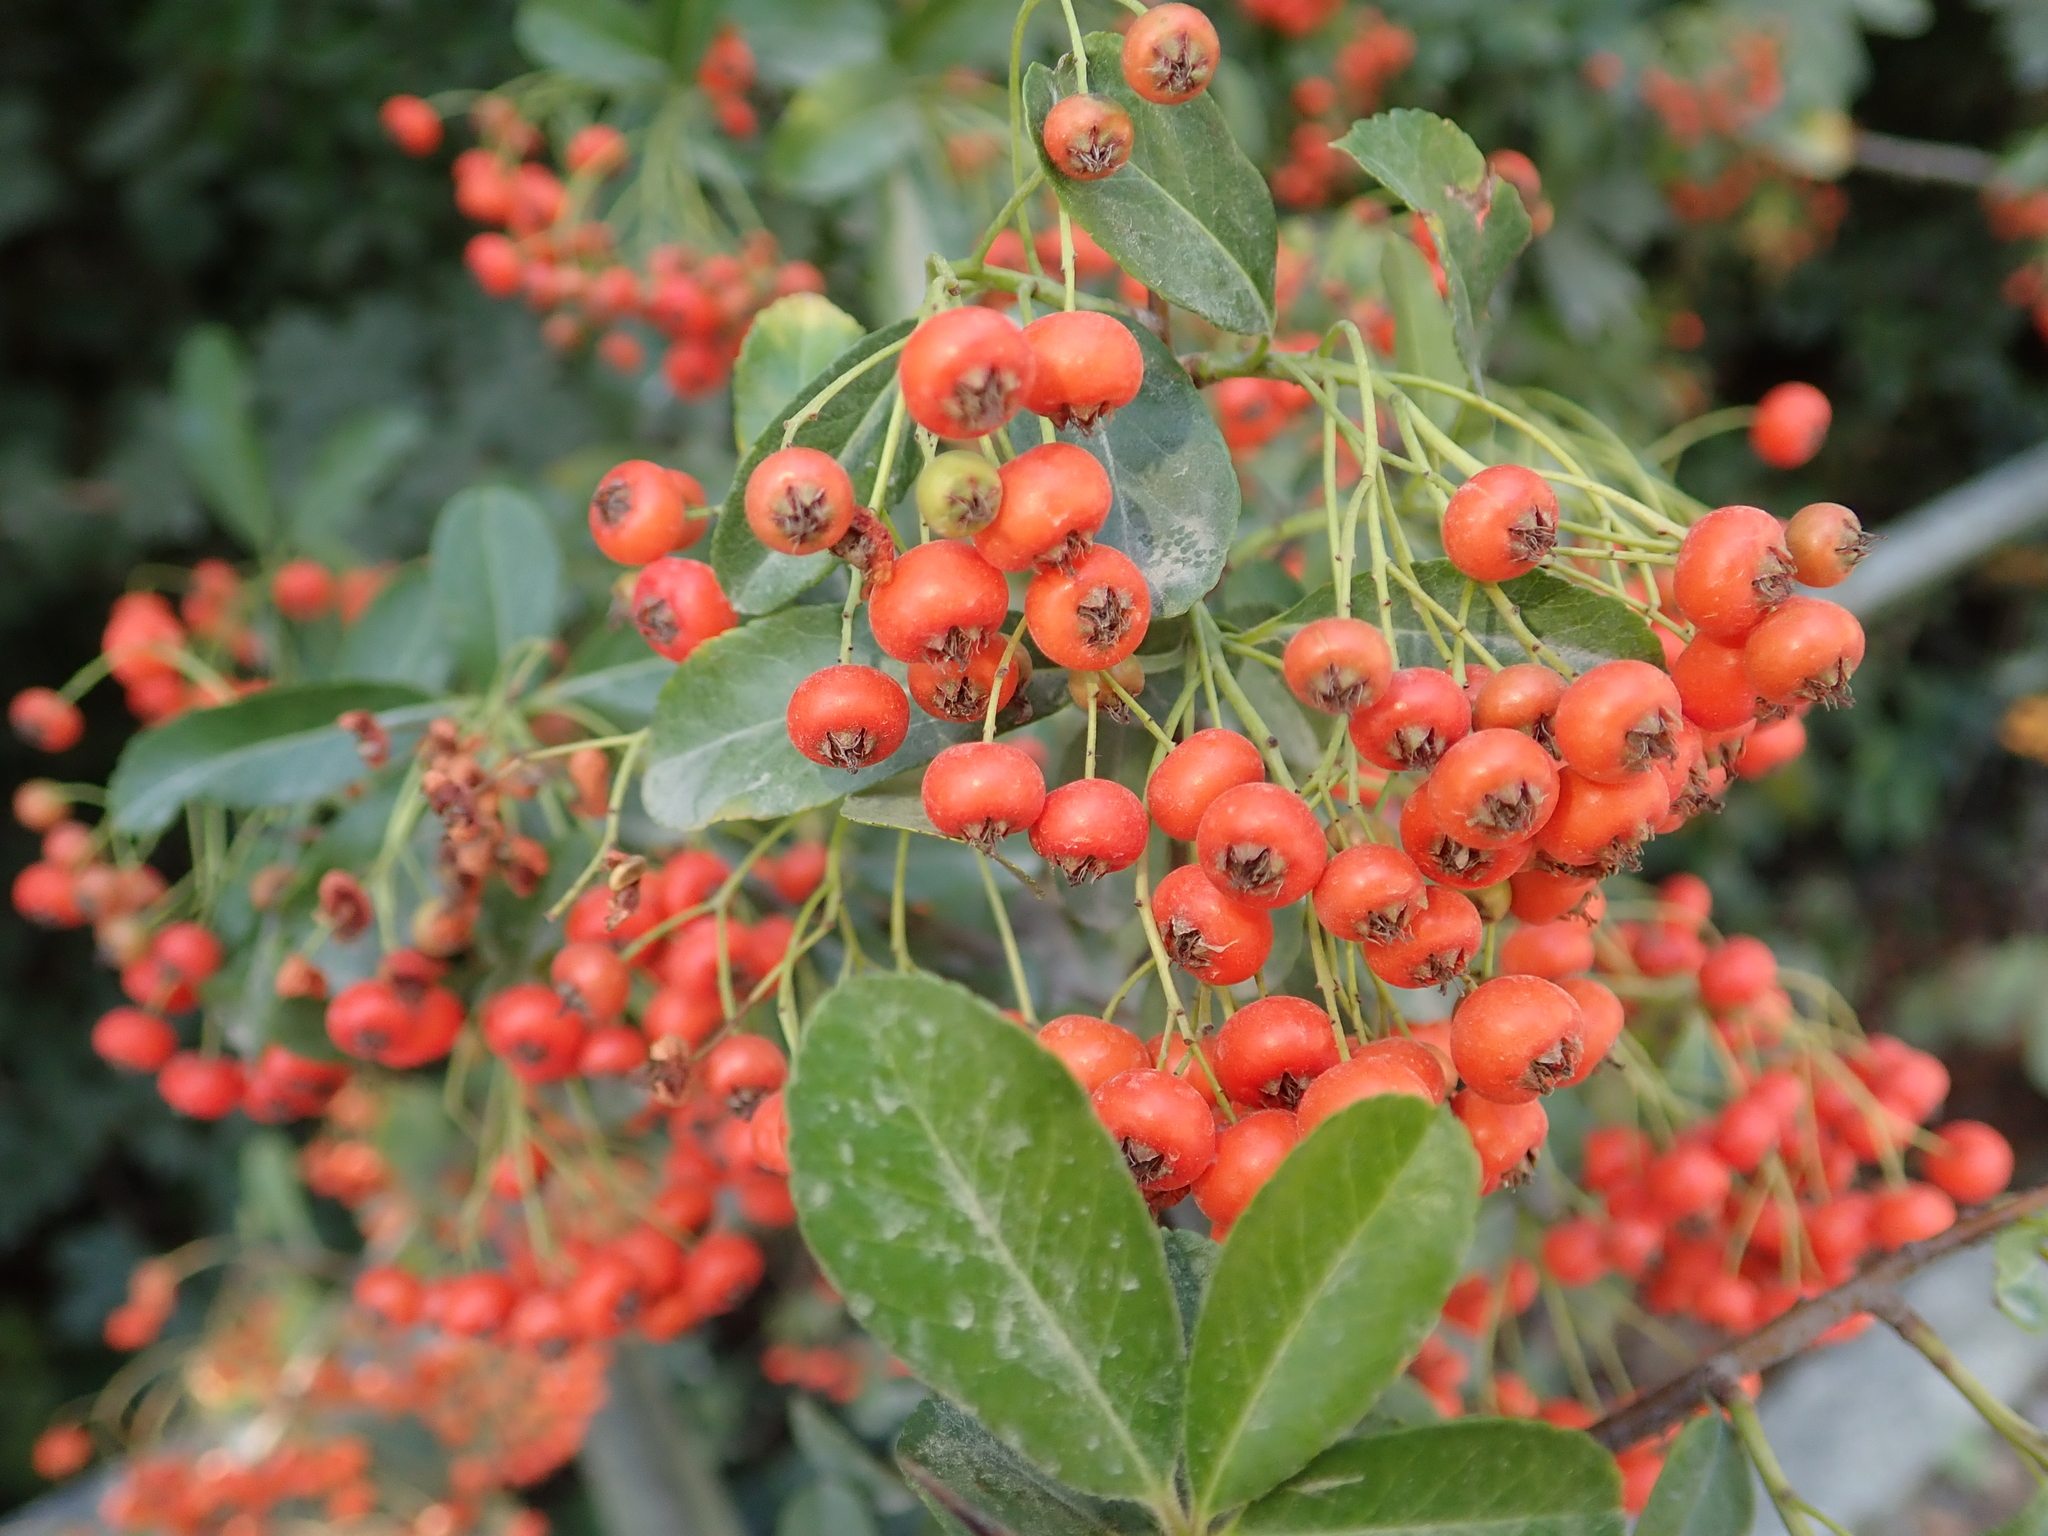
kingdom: Plantae
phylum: Tracheophyta
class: Magnoliopsida
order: Rosales
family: Rosaceae
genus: Pyracantha
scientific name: Pyracantha coccinea
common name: Firethorn
